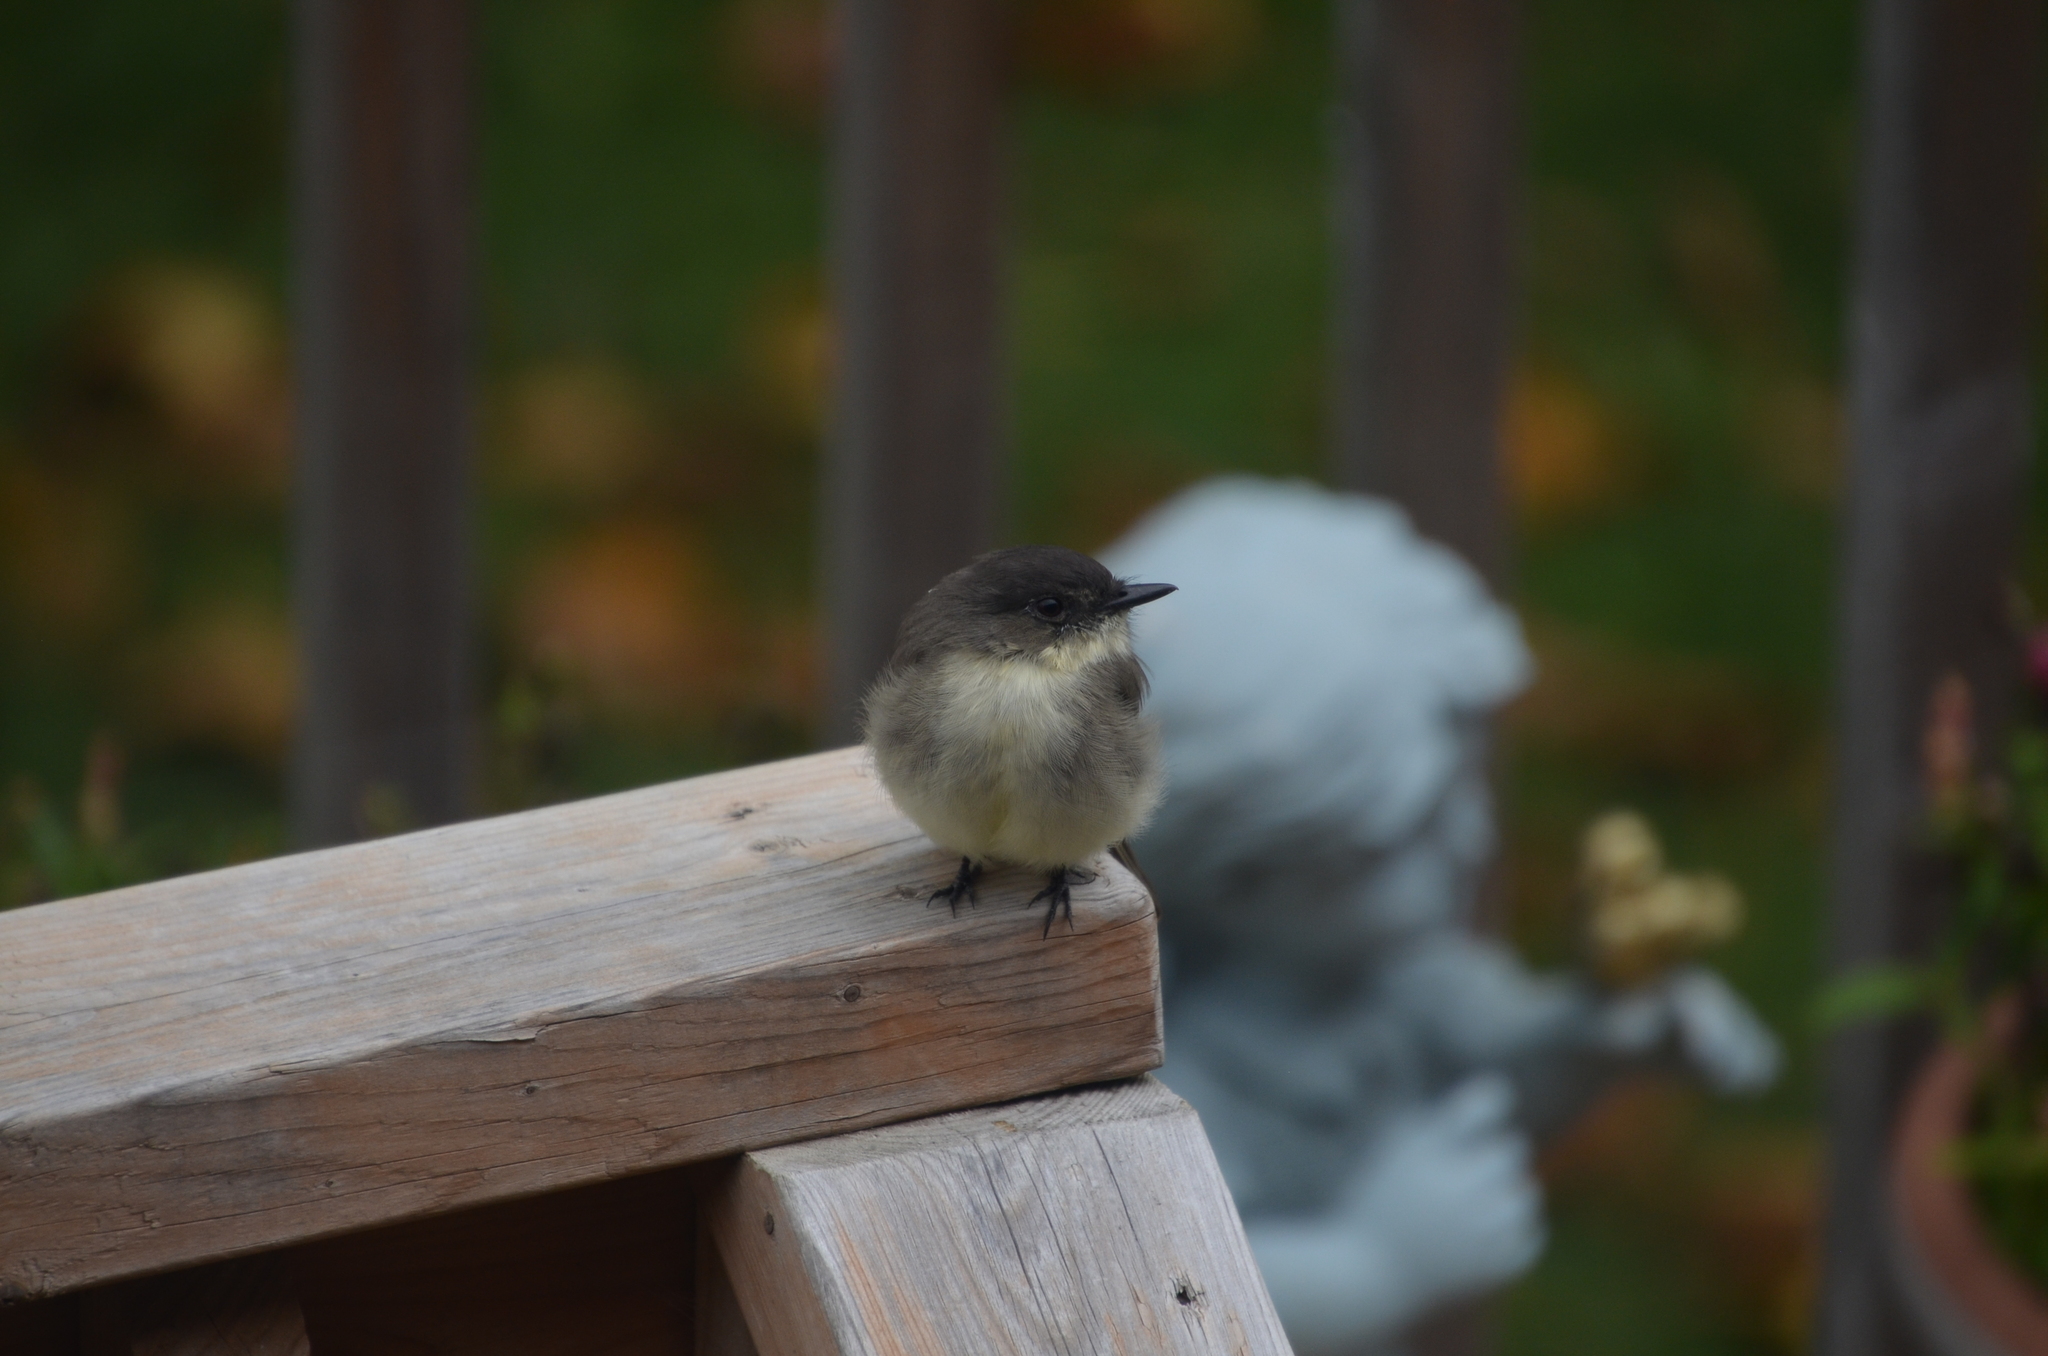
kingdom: Animalia
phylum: Chordata
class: Aves
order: Passeriformes
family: Tyrannidae
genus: Sayornis
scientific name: Sayornis phoebe
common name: Eastern phoebe
